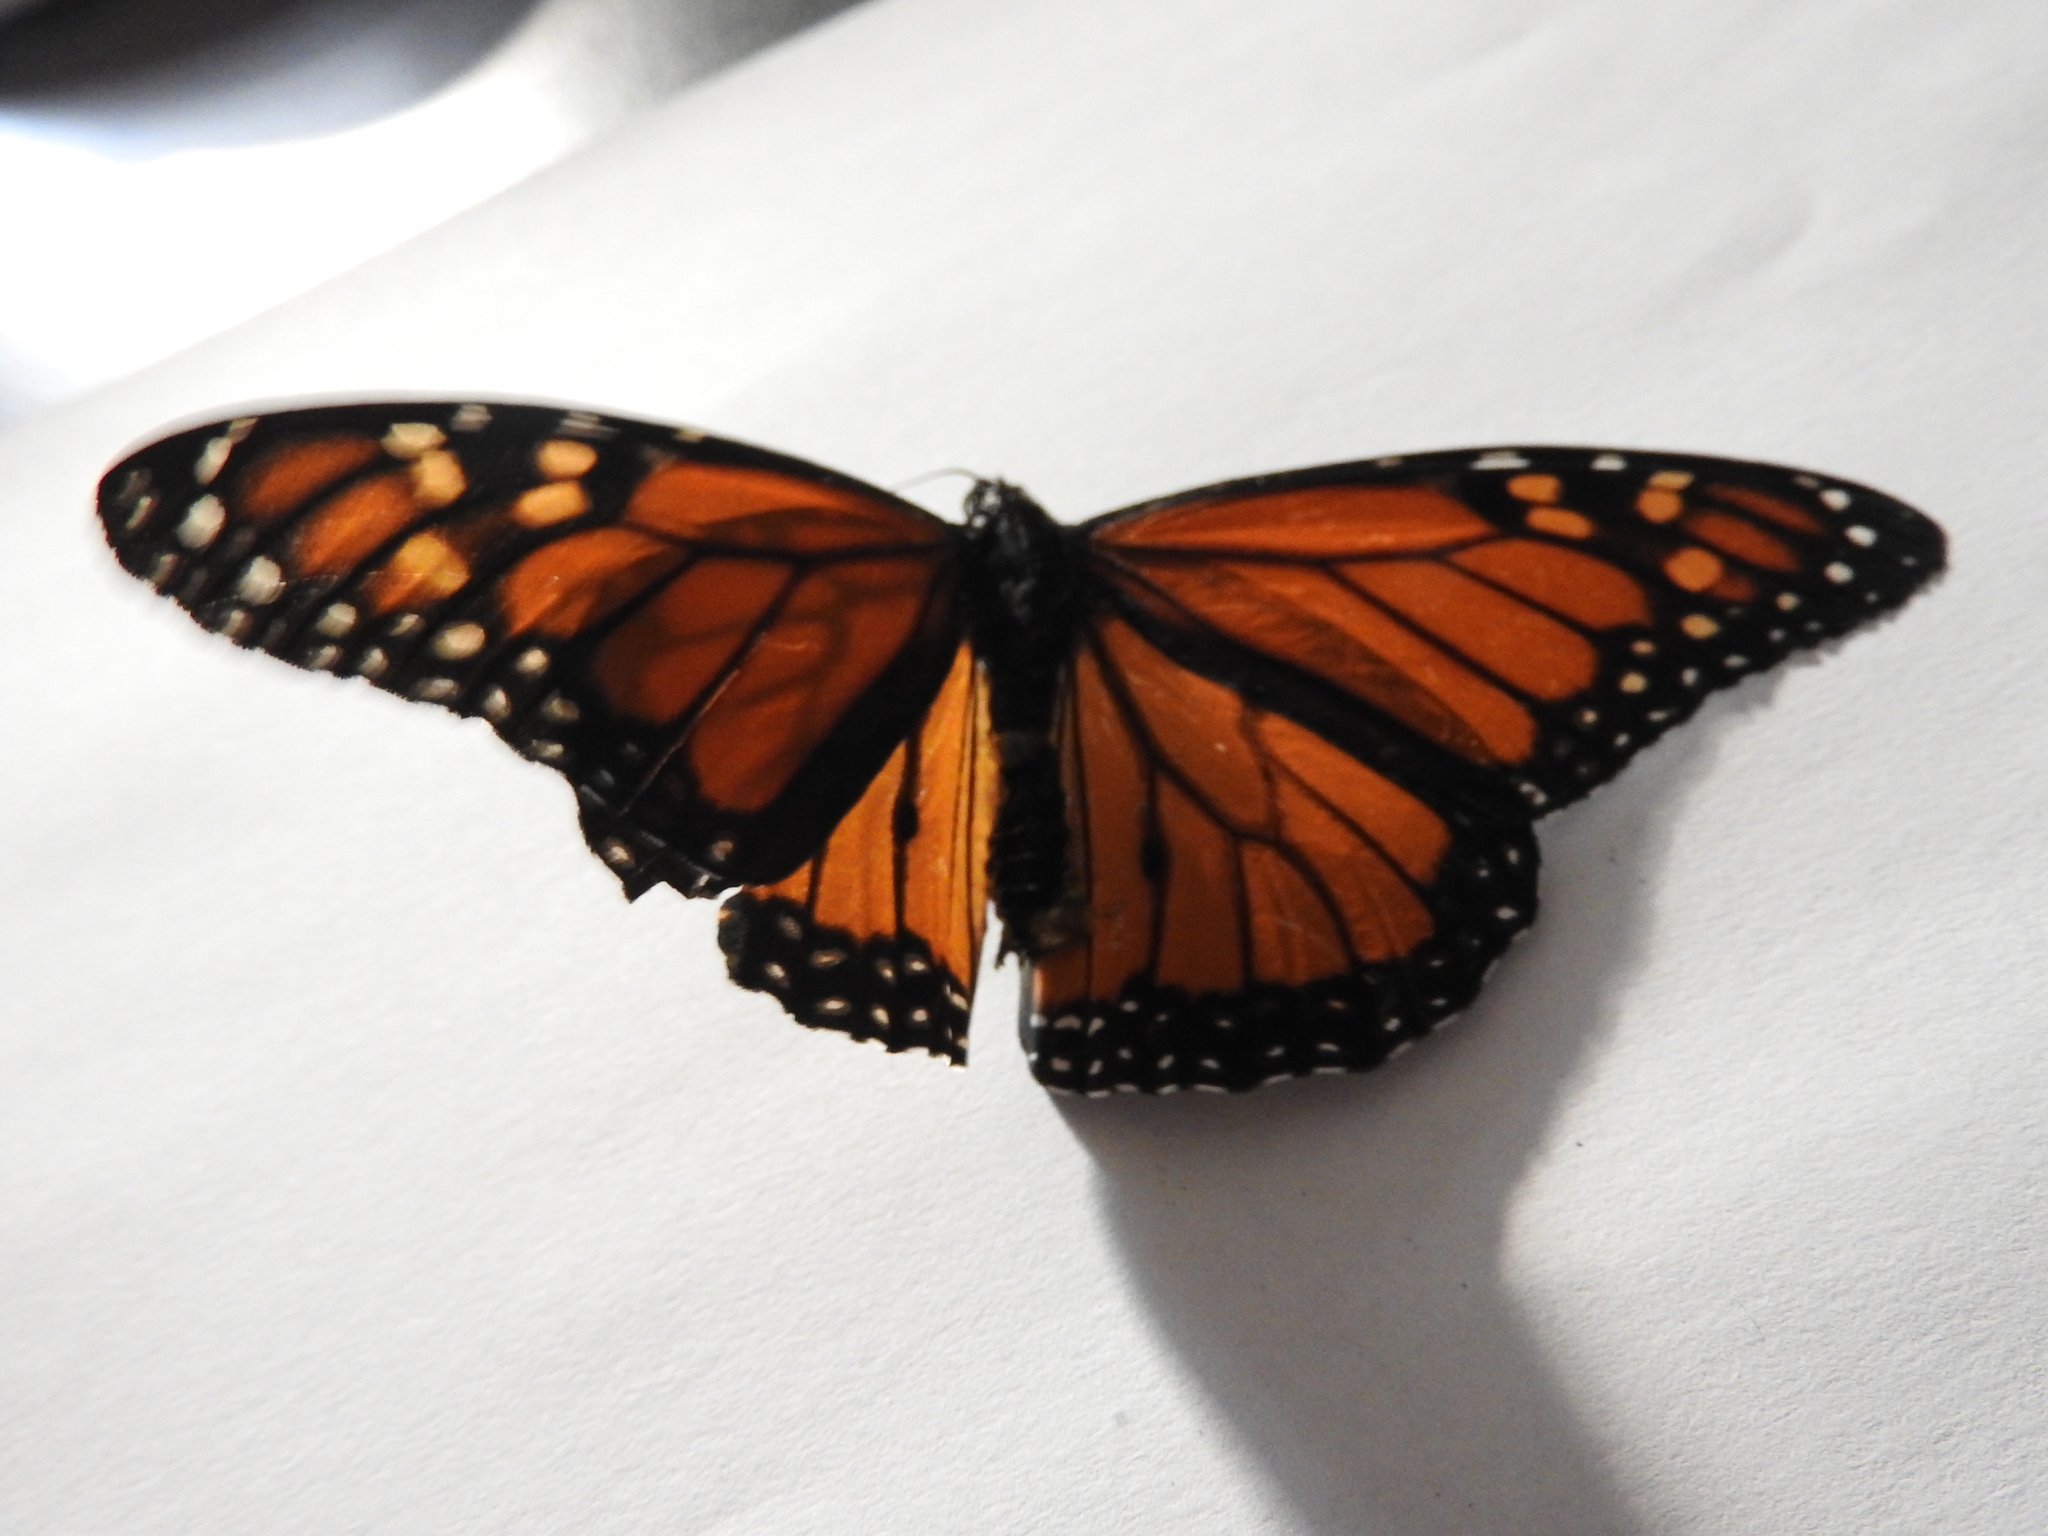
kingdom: Animalia
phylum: Arthropoda
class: Insecta
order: Lepidoptera
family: Nymphalidae
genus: Danaus
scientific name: Danaus plexippus
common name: Monarch
